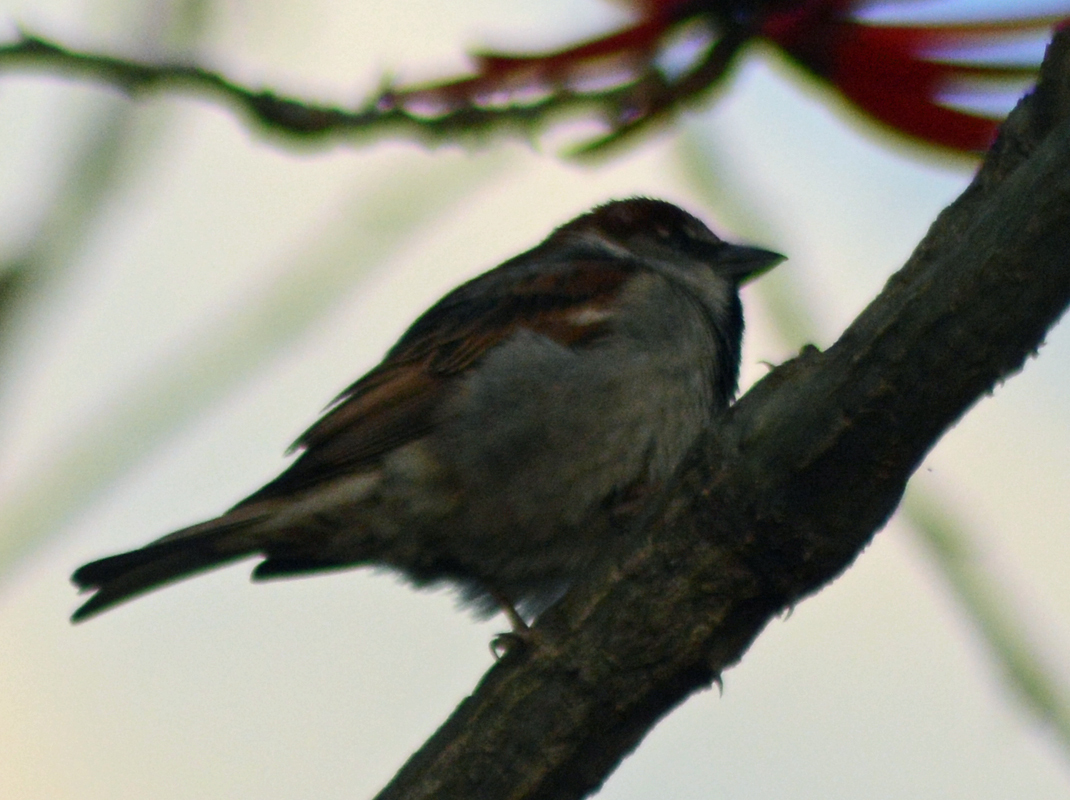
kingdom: Animalia
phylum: Chordata
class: Aves
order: Passeriformes
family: Passeridae
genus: Passer
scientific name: Passer domesticus
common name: House sparrow
